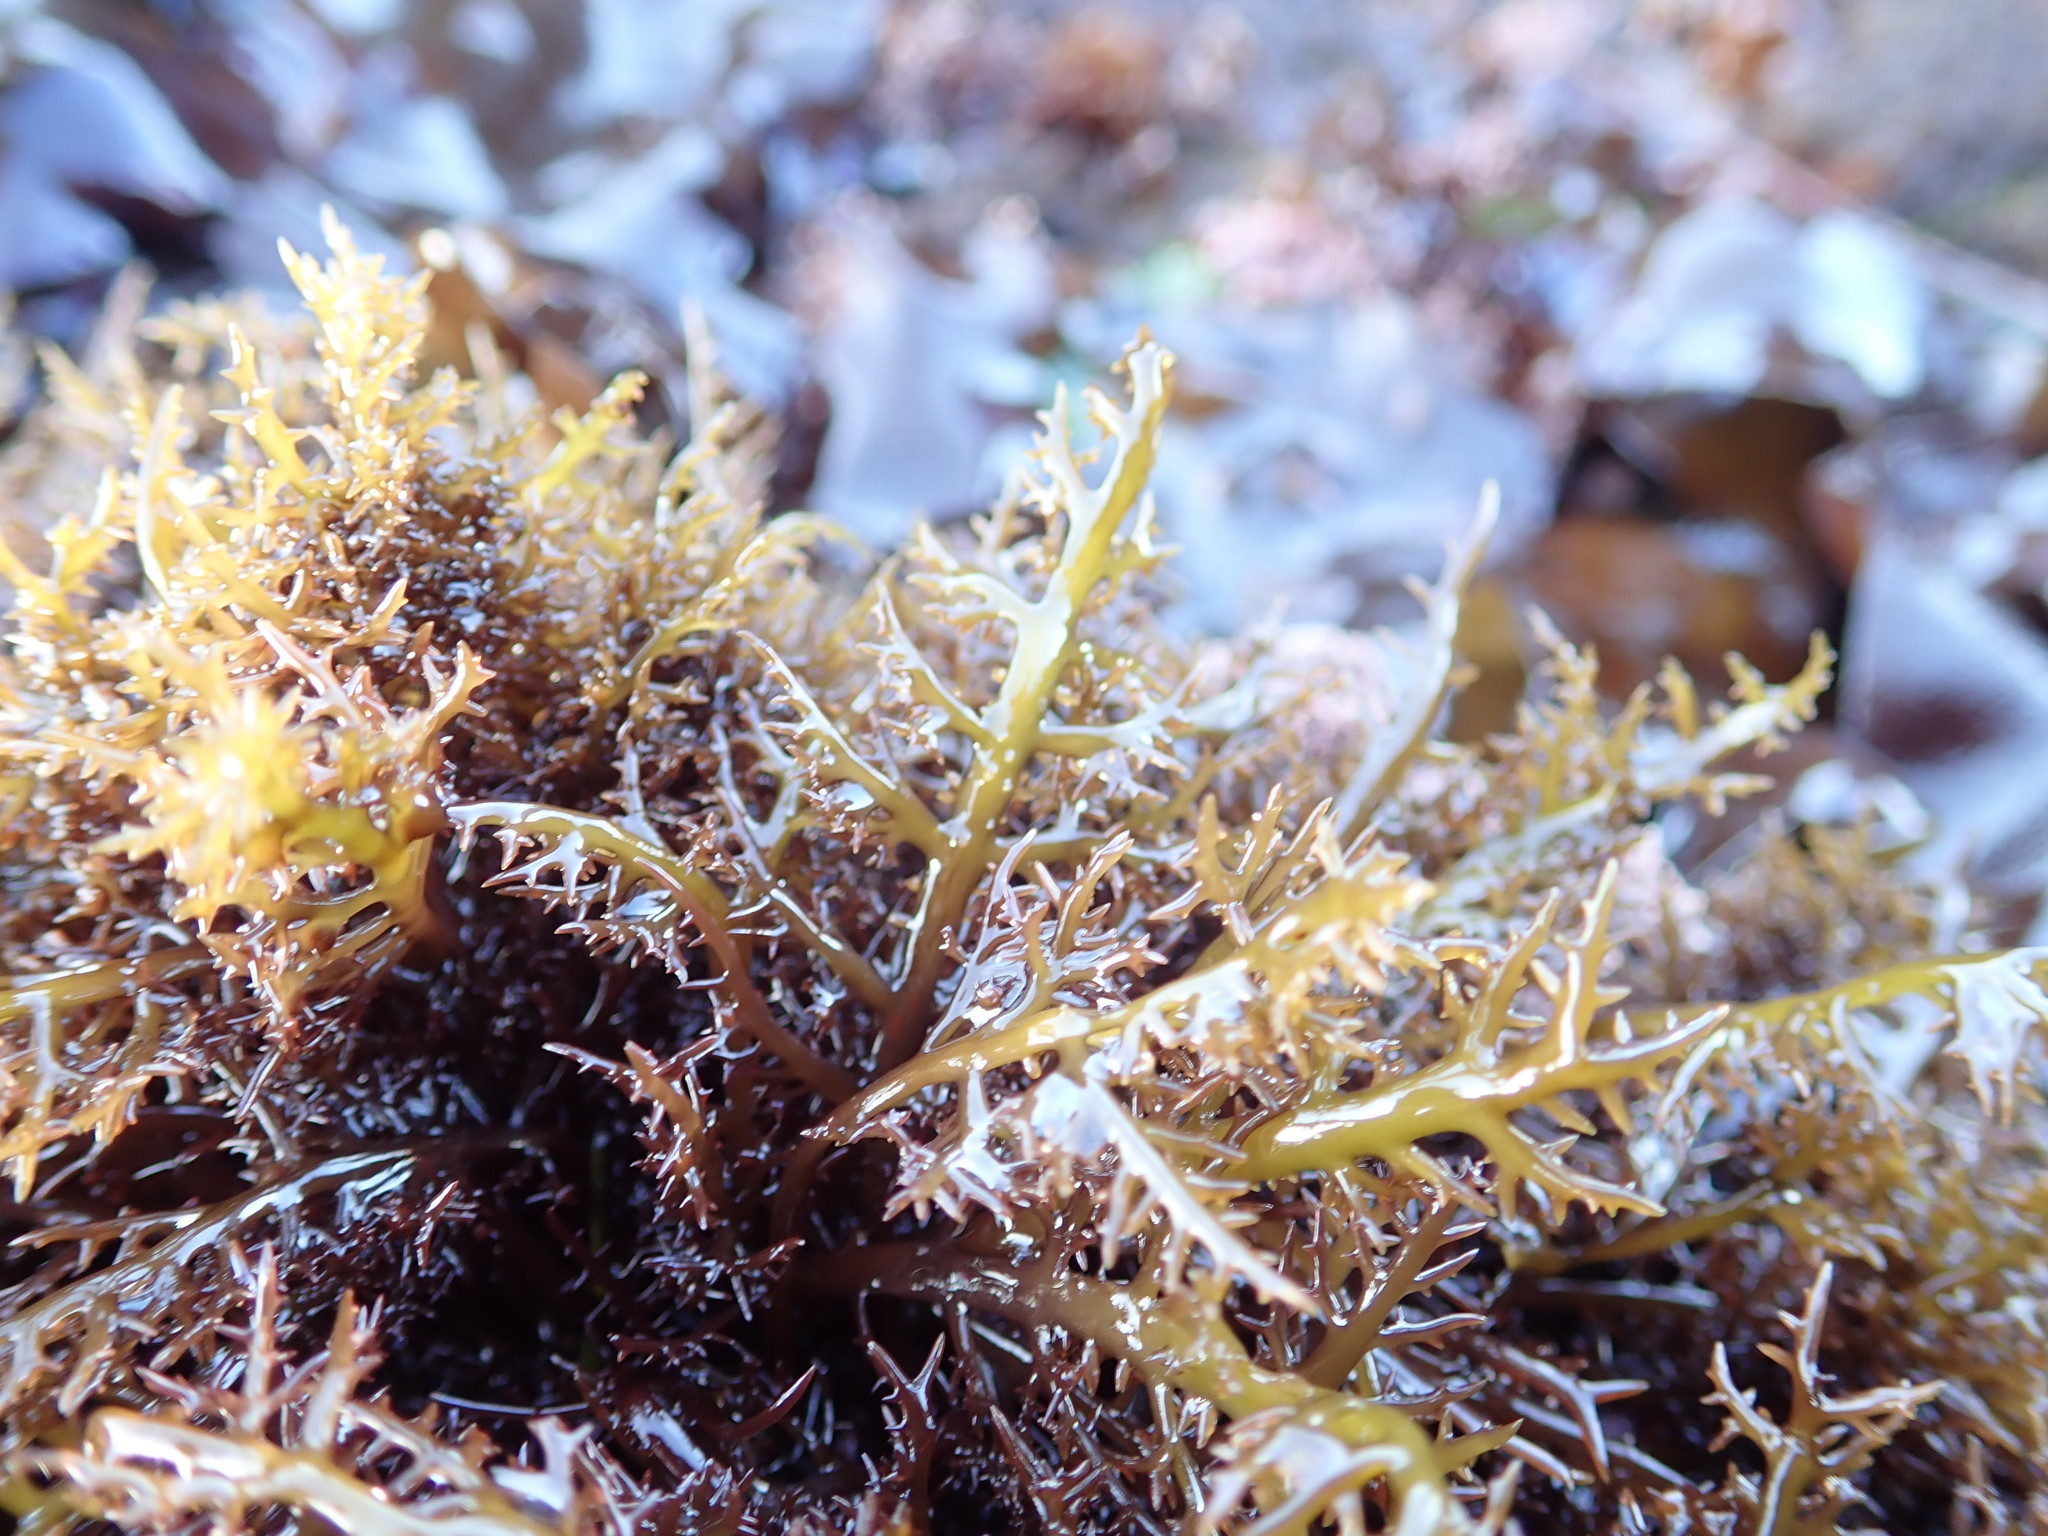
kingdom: Plantae
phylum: Rhodophyta
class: Florideophyceae
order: Gigartinales
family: Gigartinaceae
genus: Chondracanthus
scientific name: Chondracanthus canaliculatus
